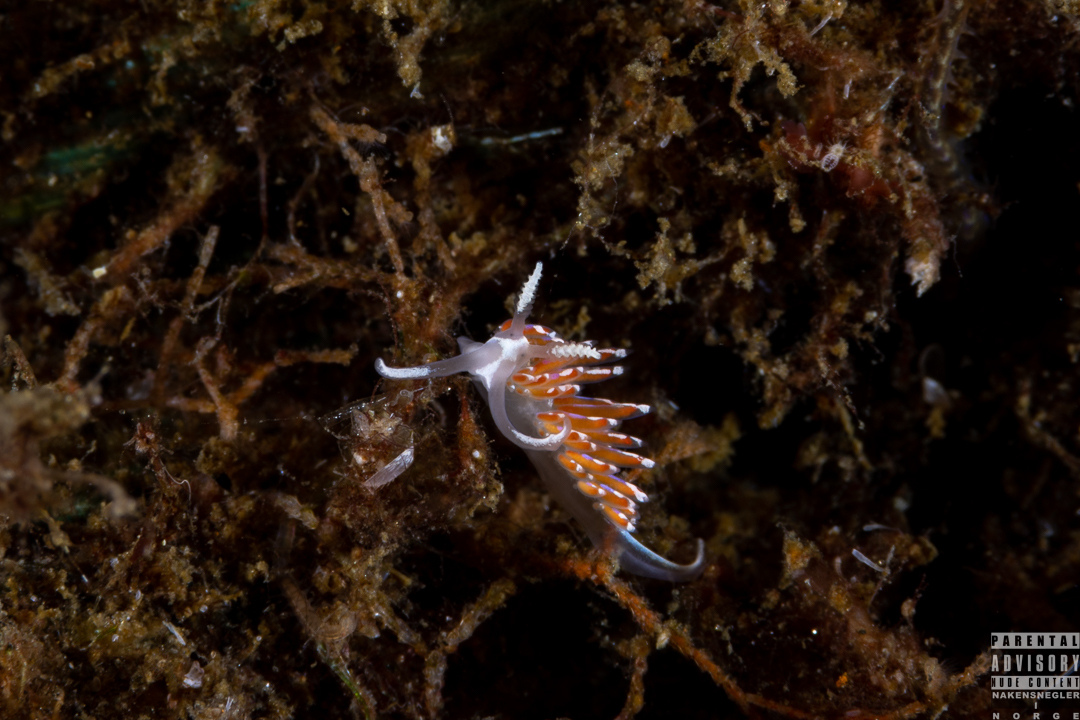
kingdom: Animalia
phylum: Mollusca
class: Gastropoda
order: Nudibranchia
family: Facelinidae
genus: Facelina
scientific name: Facelina auriculata
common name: Slender facelina
